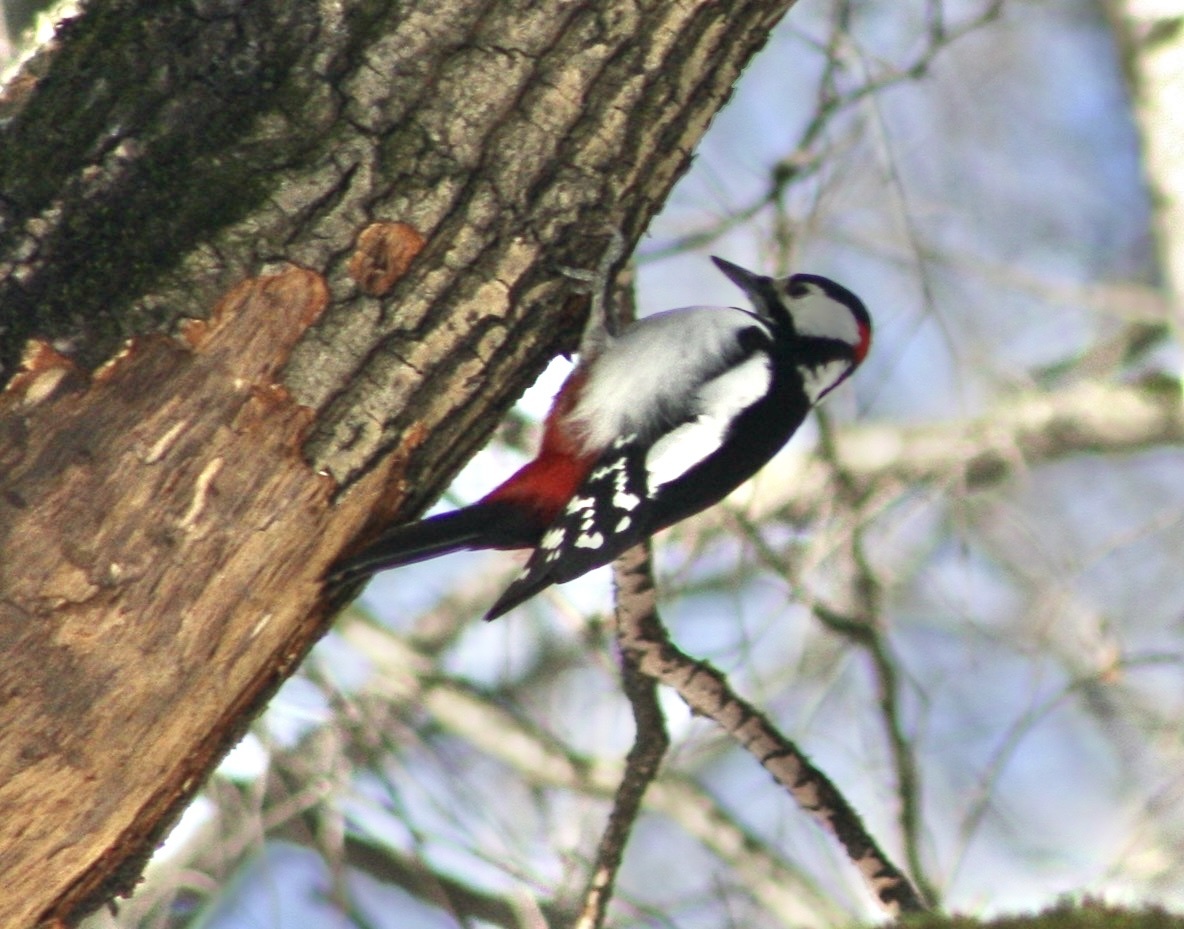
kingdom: Animalia
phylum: Chordata
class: Aves
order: Piciformes
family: Picidae
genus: Dendrocopos
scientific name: Dendrocopos major
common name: Great spotted woodpecker
